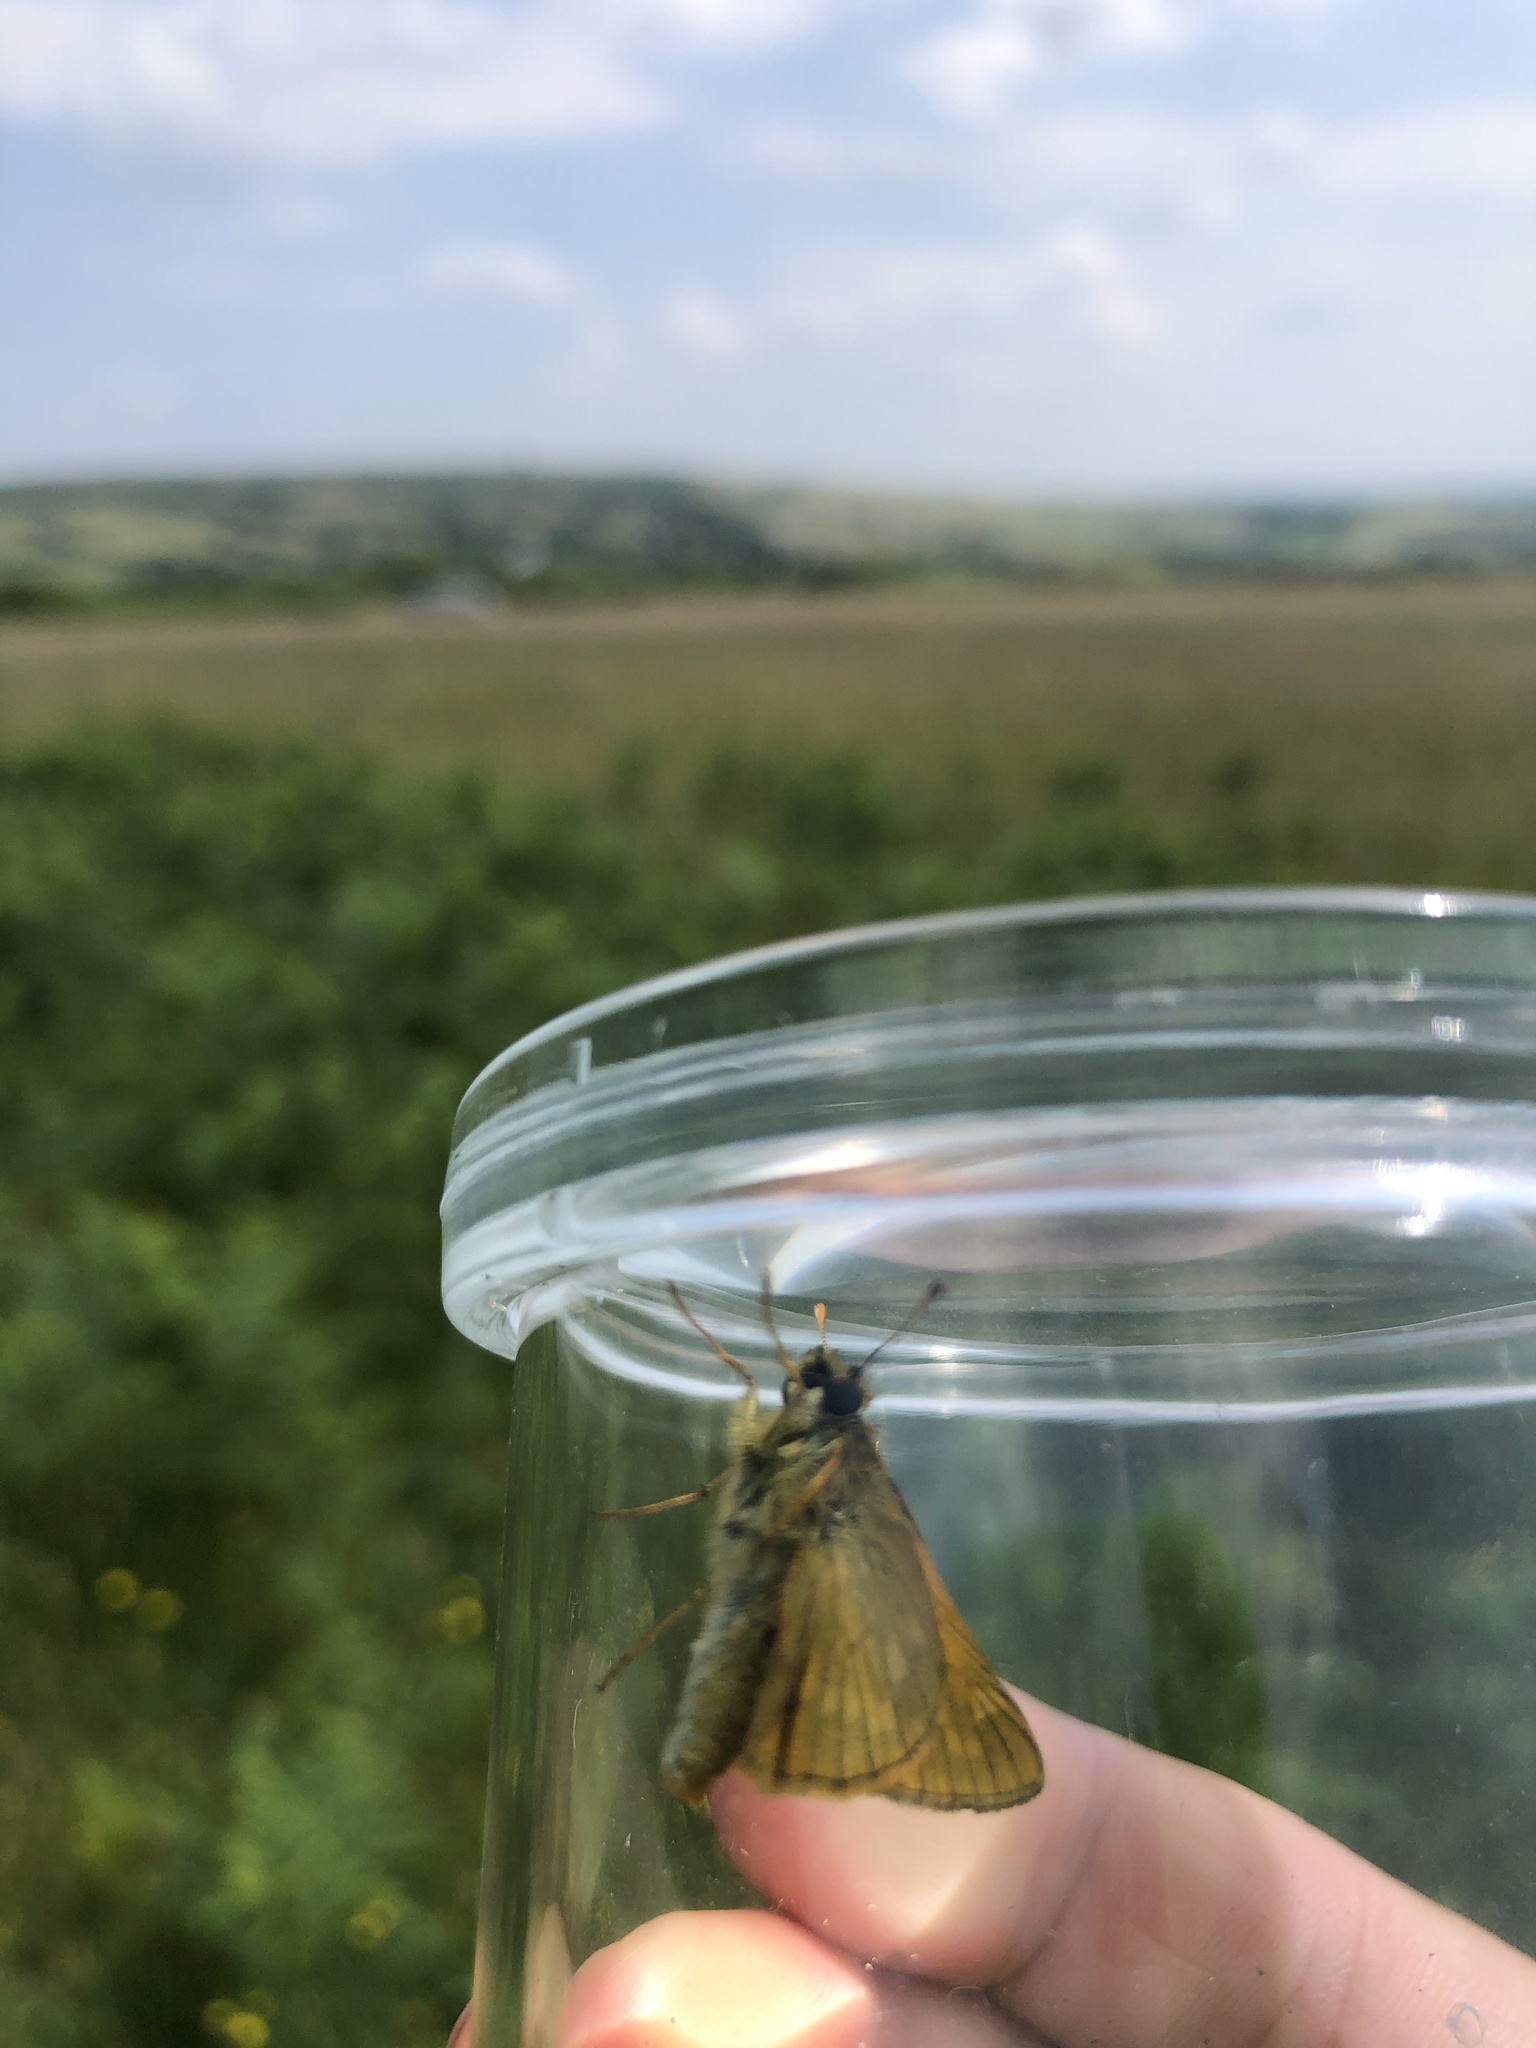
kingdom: Animalia
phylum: Arthropoda
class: Insecta
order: Lepidoptera
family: Hesperiidae
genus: Ochlodes
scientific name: Ochlodes venata
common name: Large skipper
